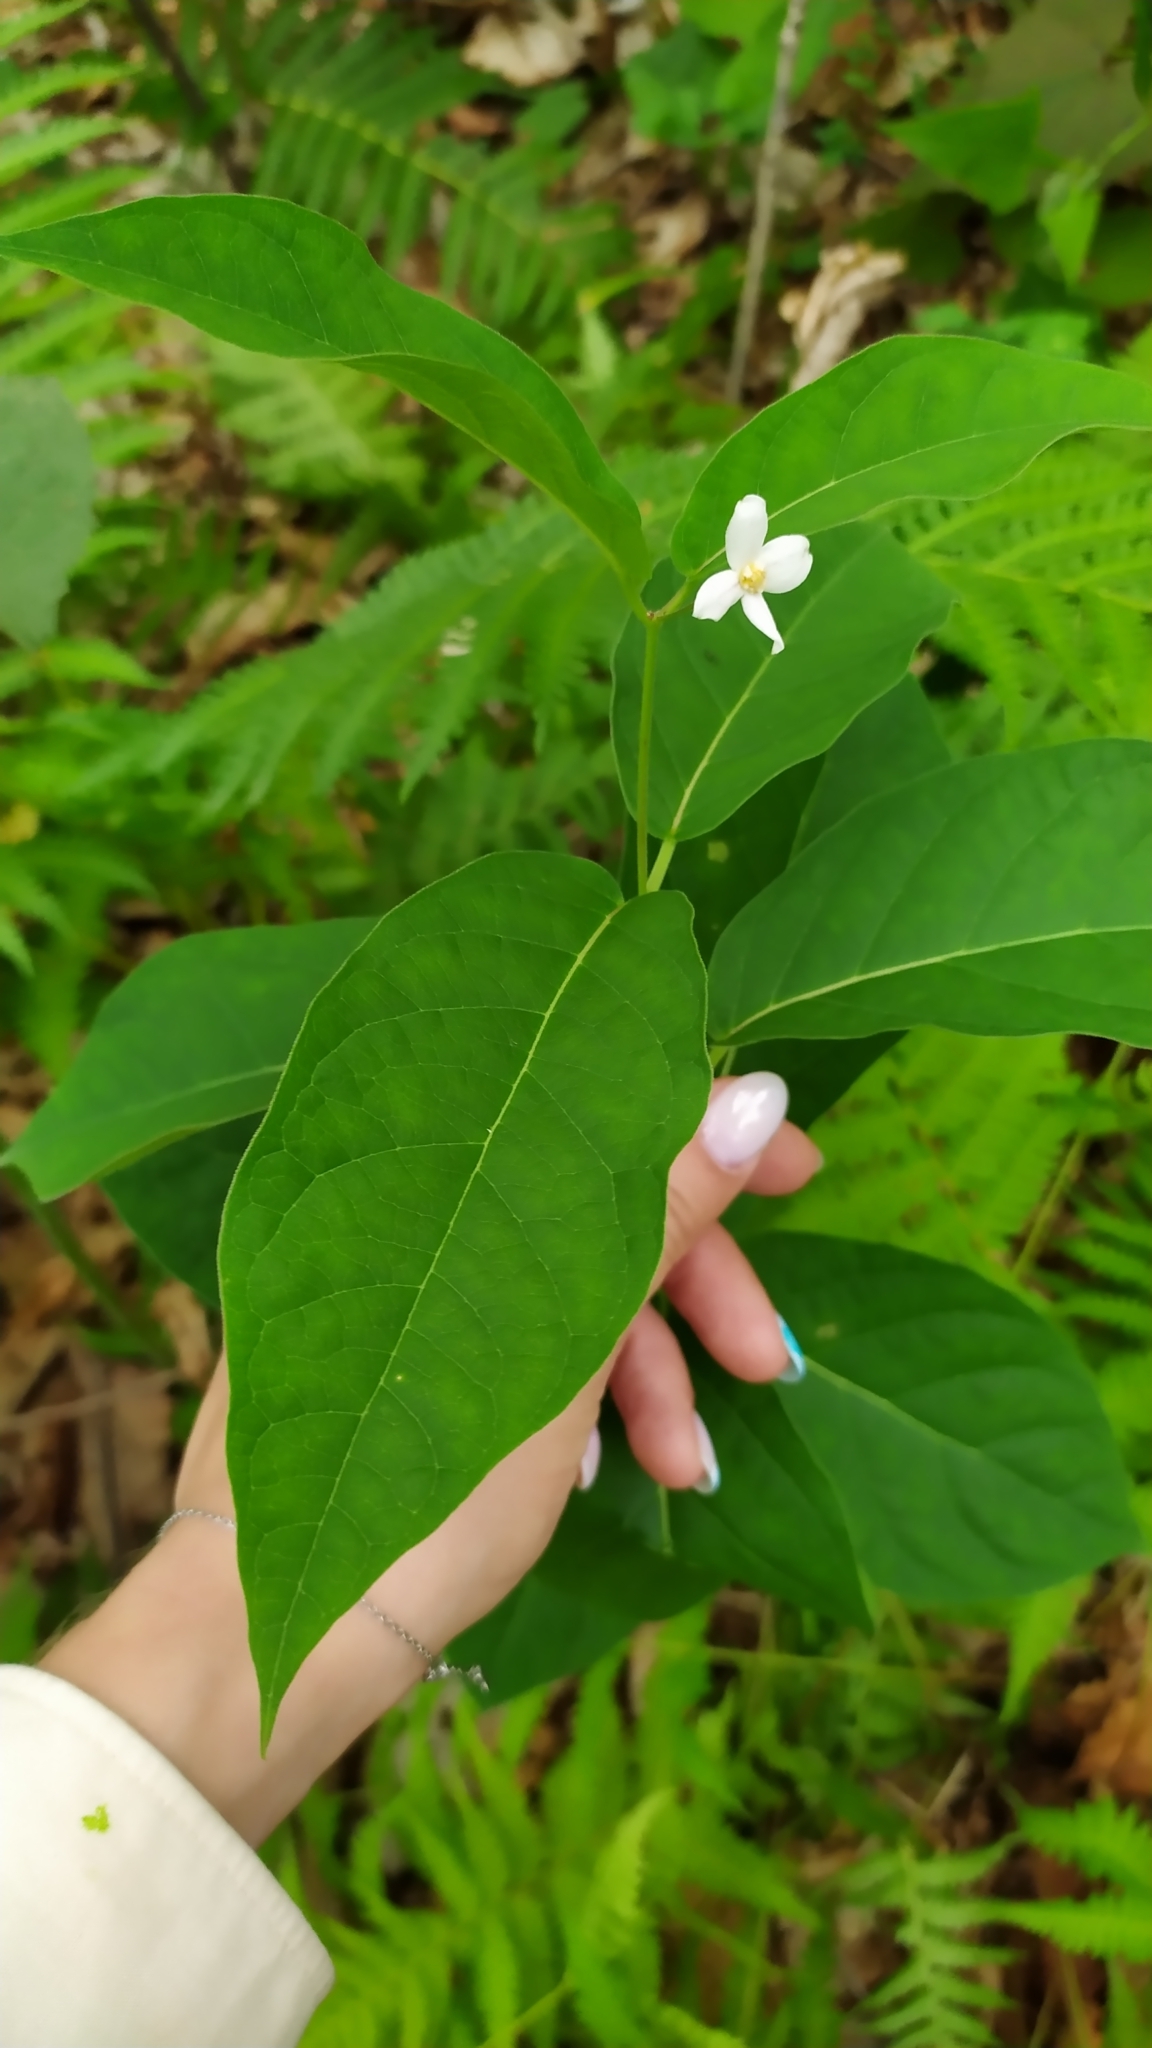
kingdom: Plantae
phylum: Tracheophyta
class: Magnoliopsida
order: Gentianales
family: Apocynaceae
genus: Vincetoxicum
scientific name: Vincetoxicum ascyrifolium
